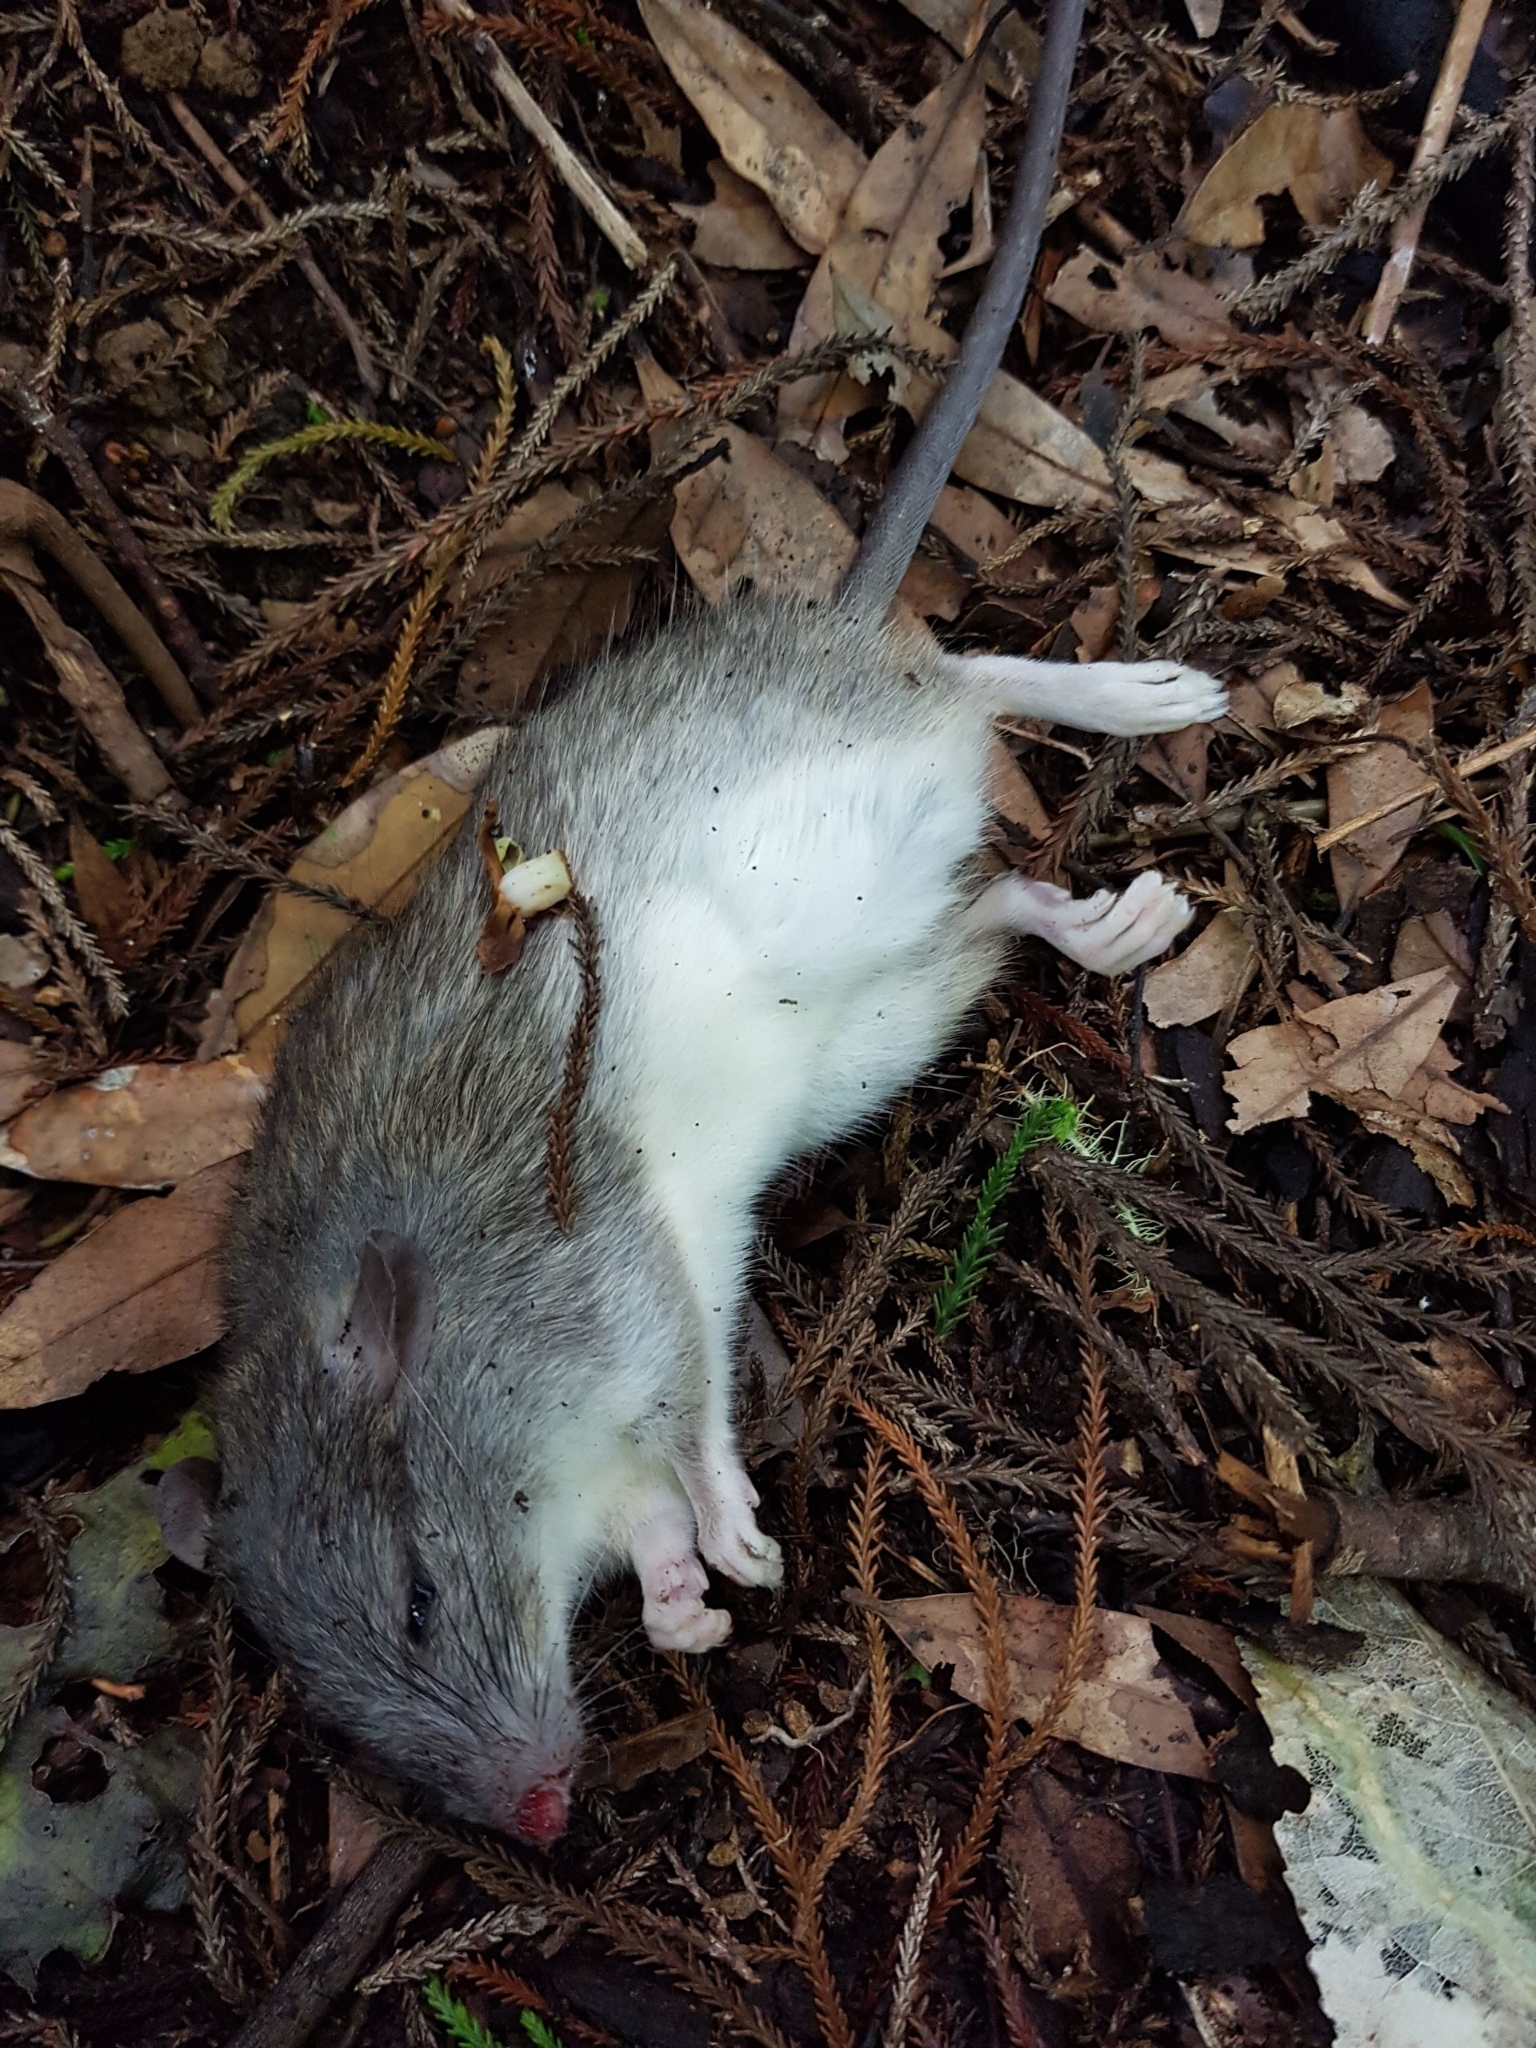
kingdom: Animalia
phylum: Chordata
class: Mammalia
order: Rodentia
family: Muridae
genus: Rattus
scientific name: Rattus rattus
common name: Black rat
